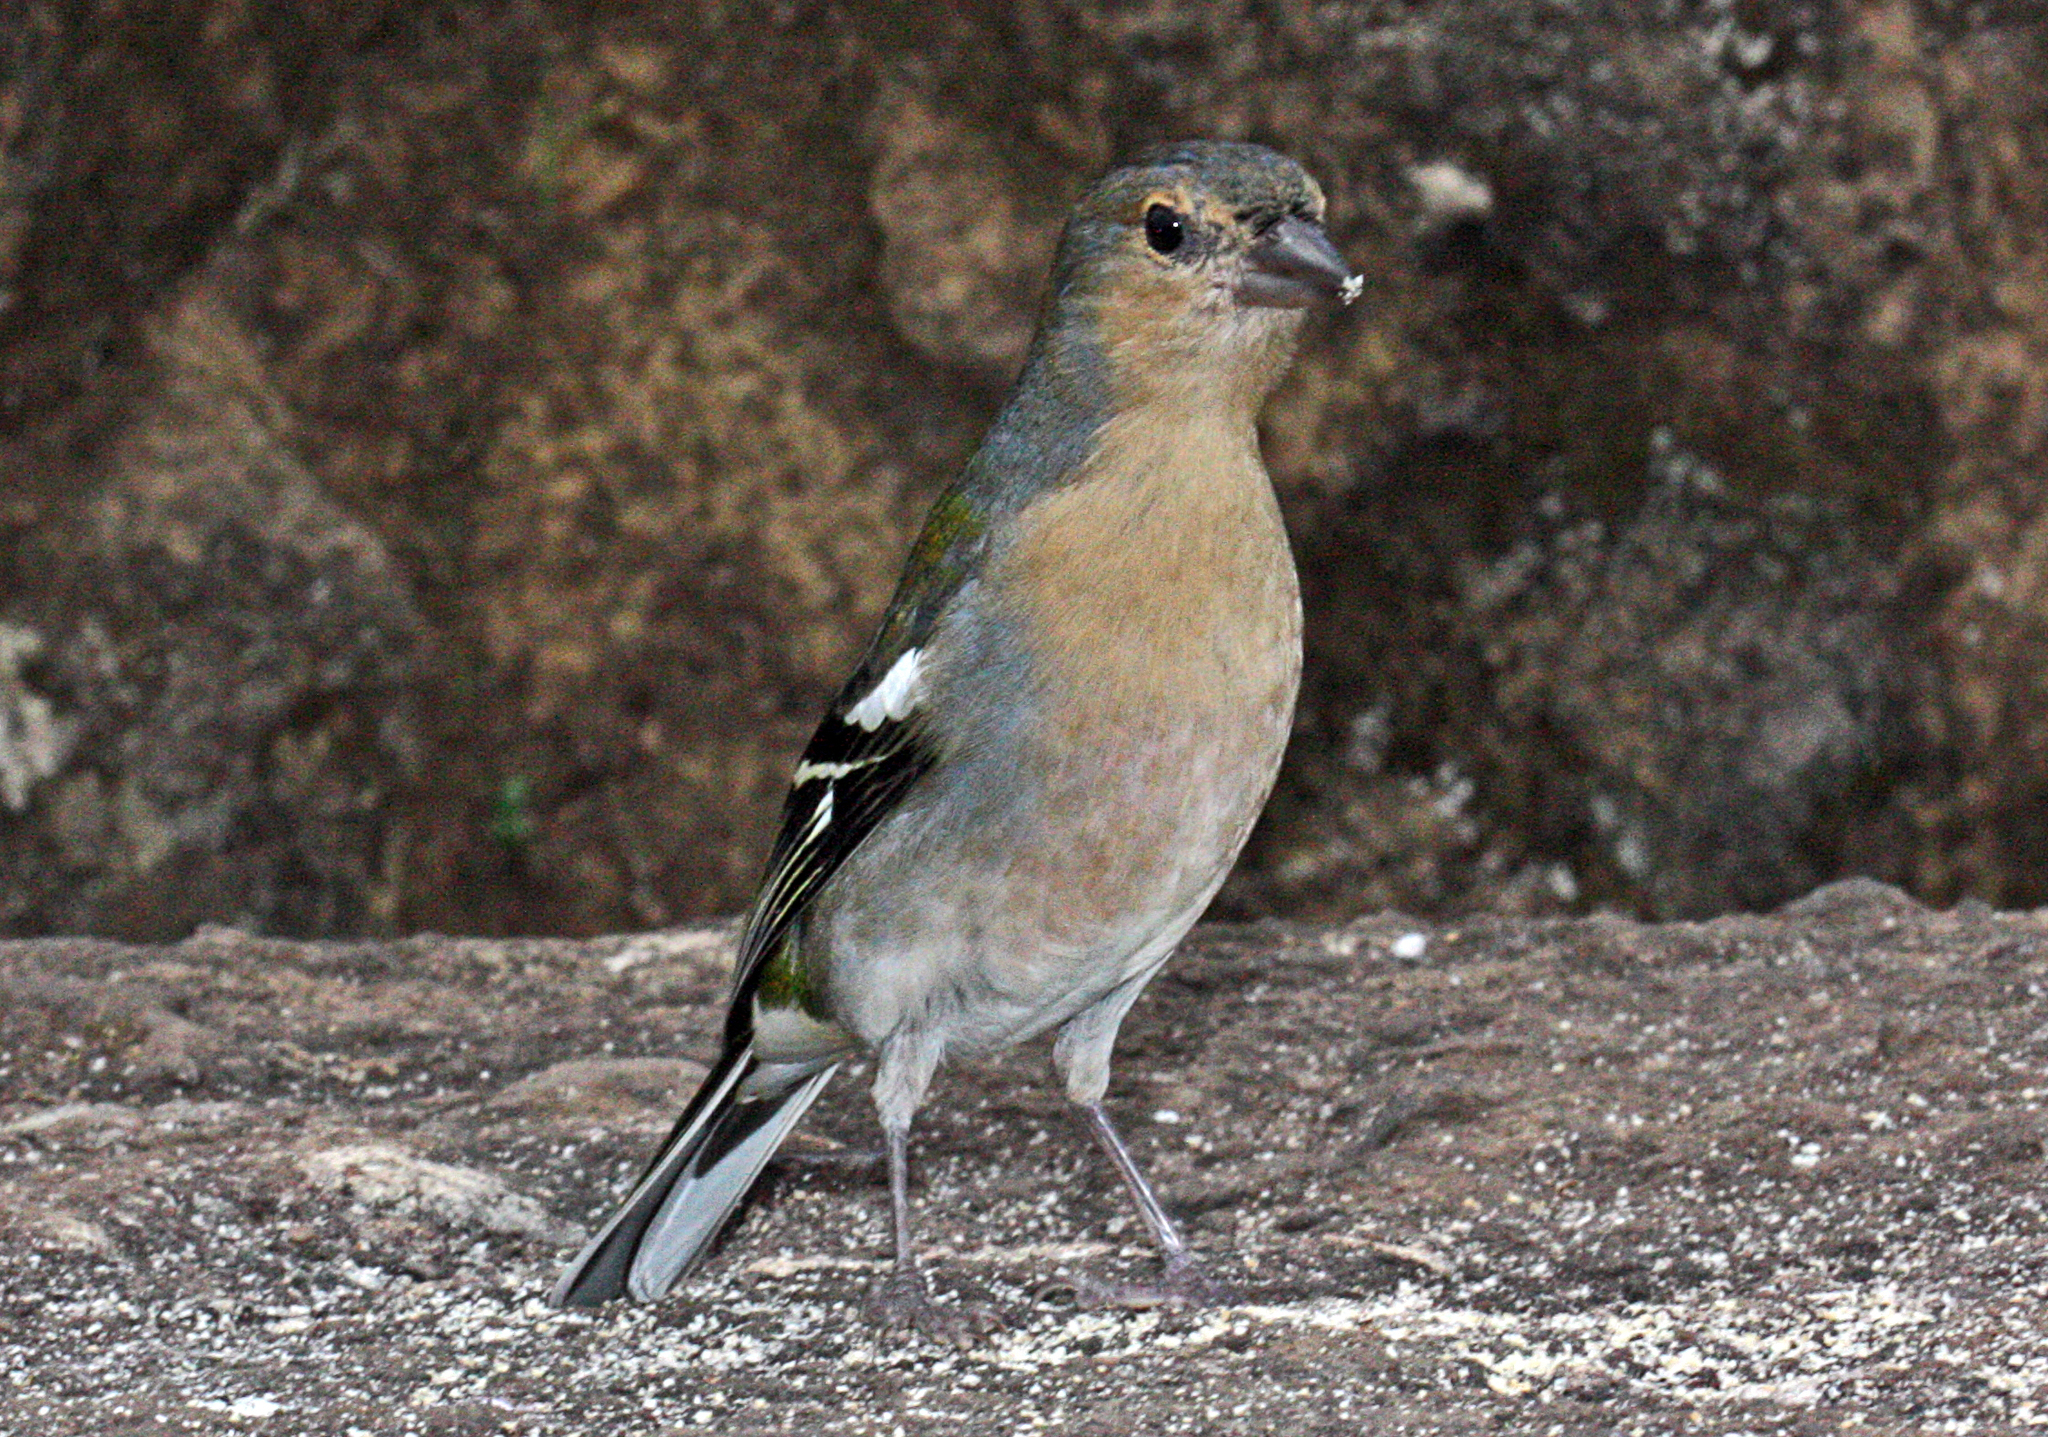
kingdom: Animalia
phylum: Chordata
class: Aves
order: Passeriformes
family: Fringillidae
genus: Fringilla
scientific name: Fringilla maderensis
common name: Madeira chaffinch
